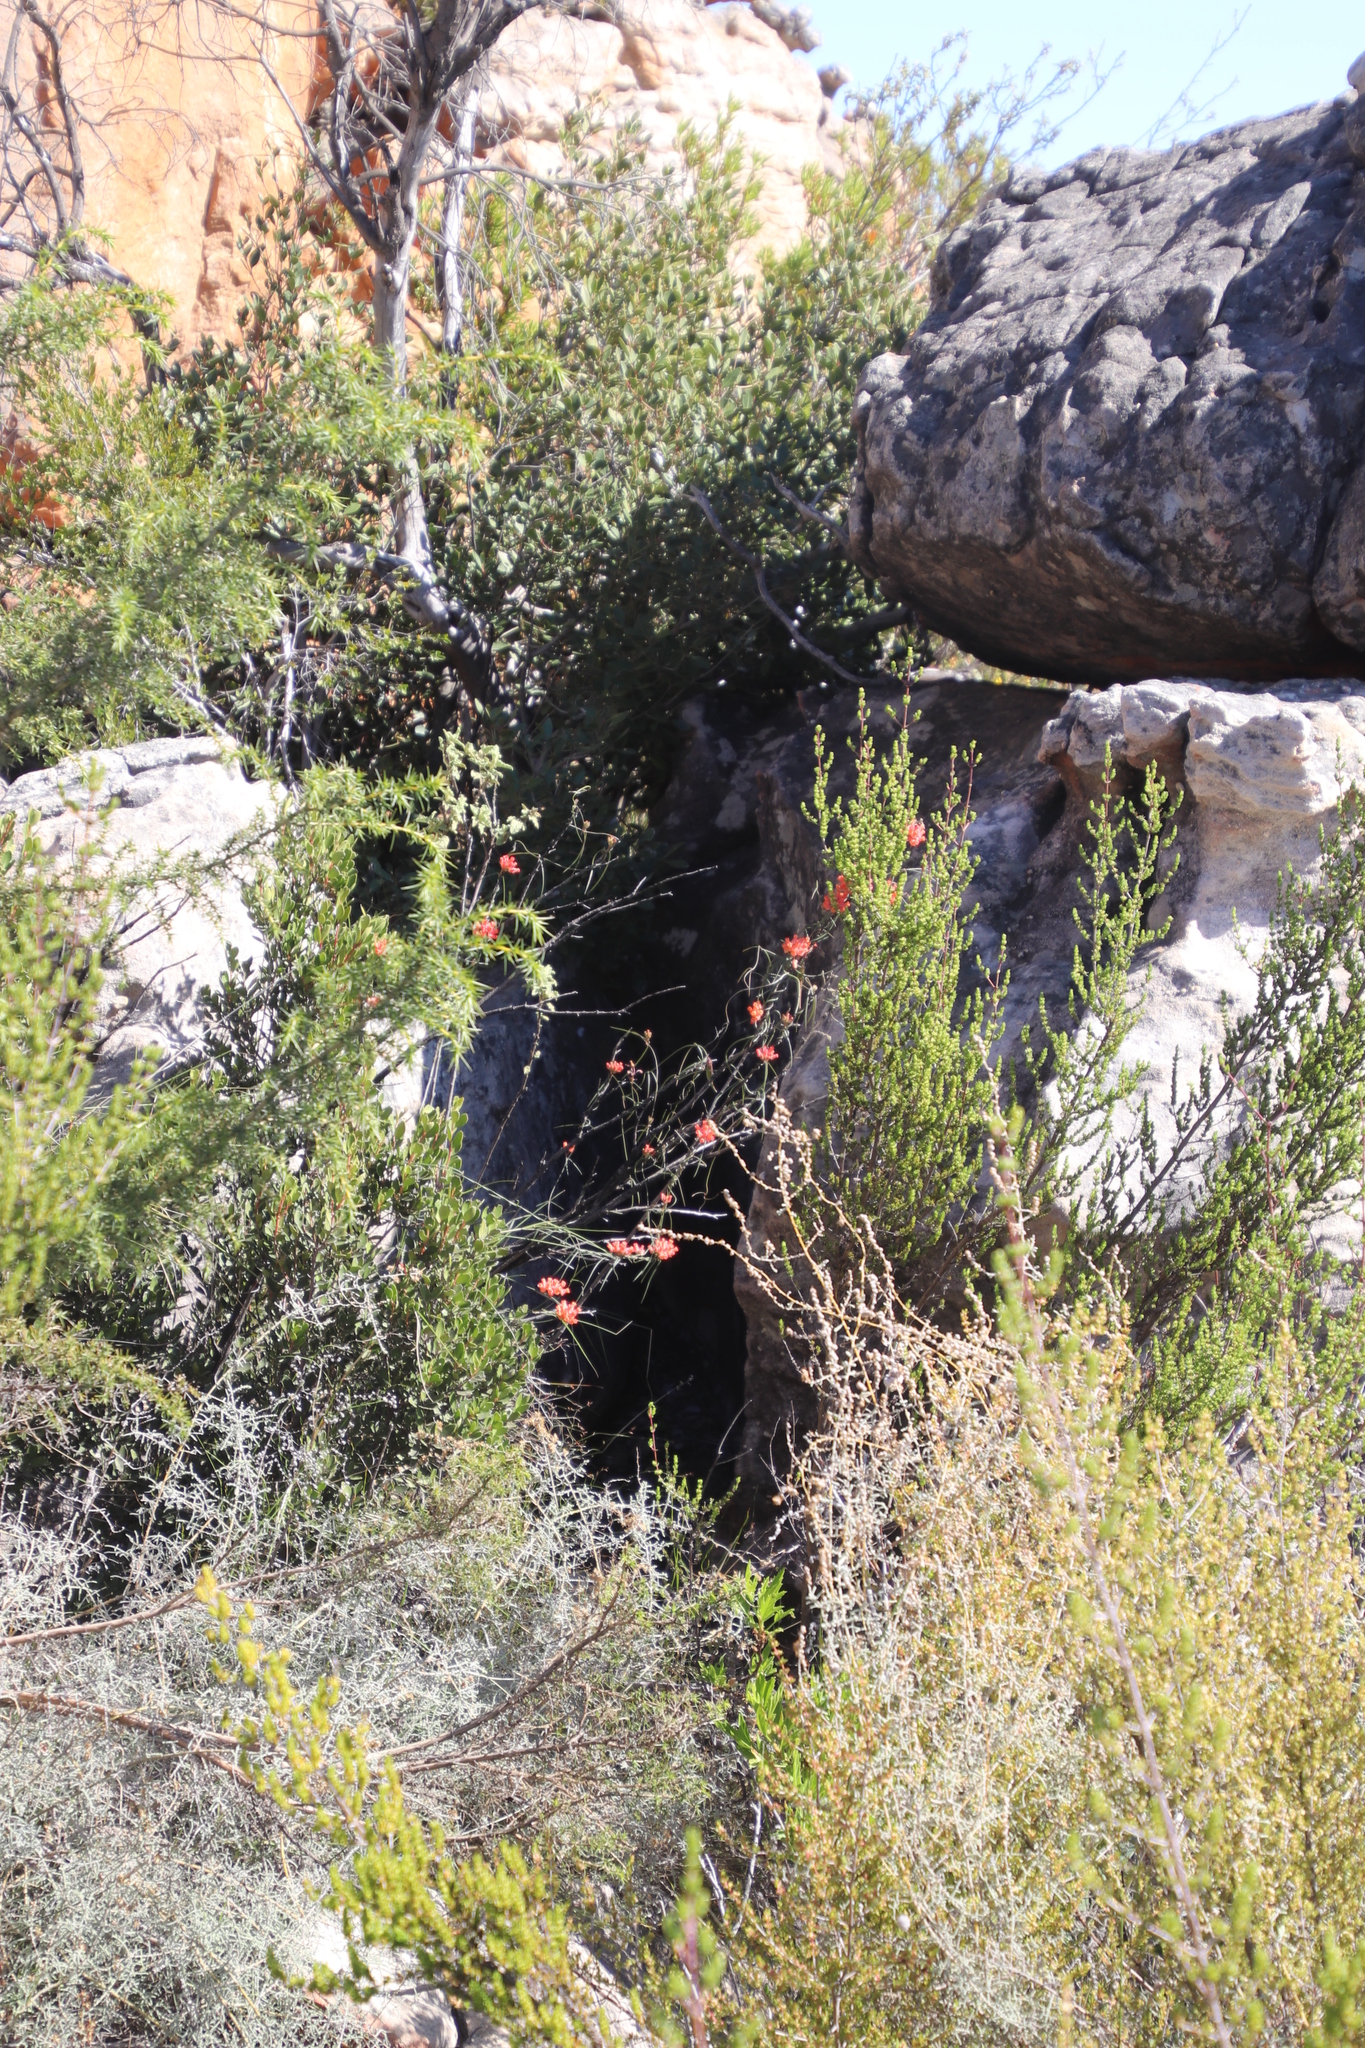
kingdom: Plantae
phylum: Tracheophyta
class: Magnoliopsida
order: Gentianales
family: Apocynaceae
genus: Microloma
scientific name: Microloma tenuifolium
